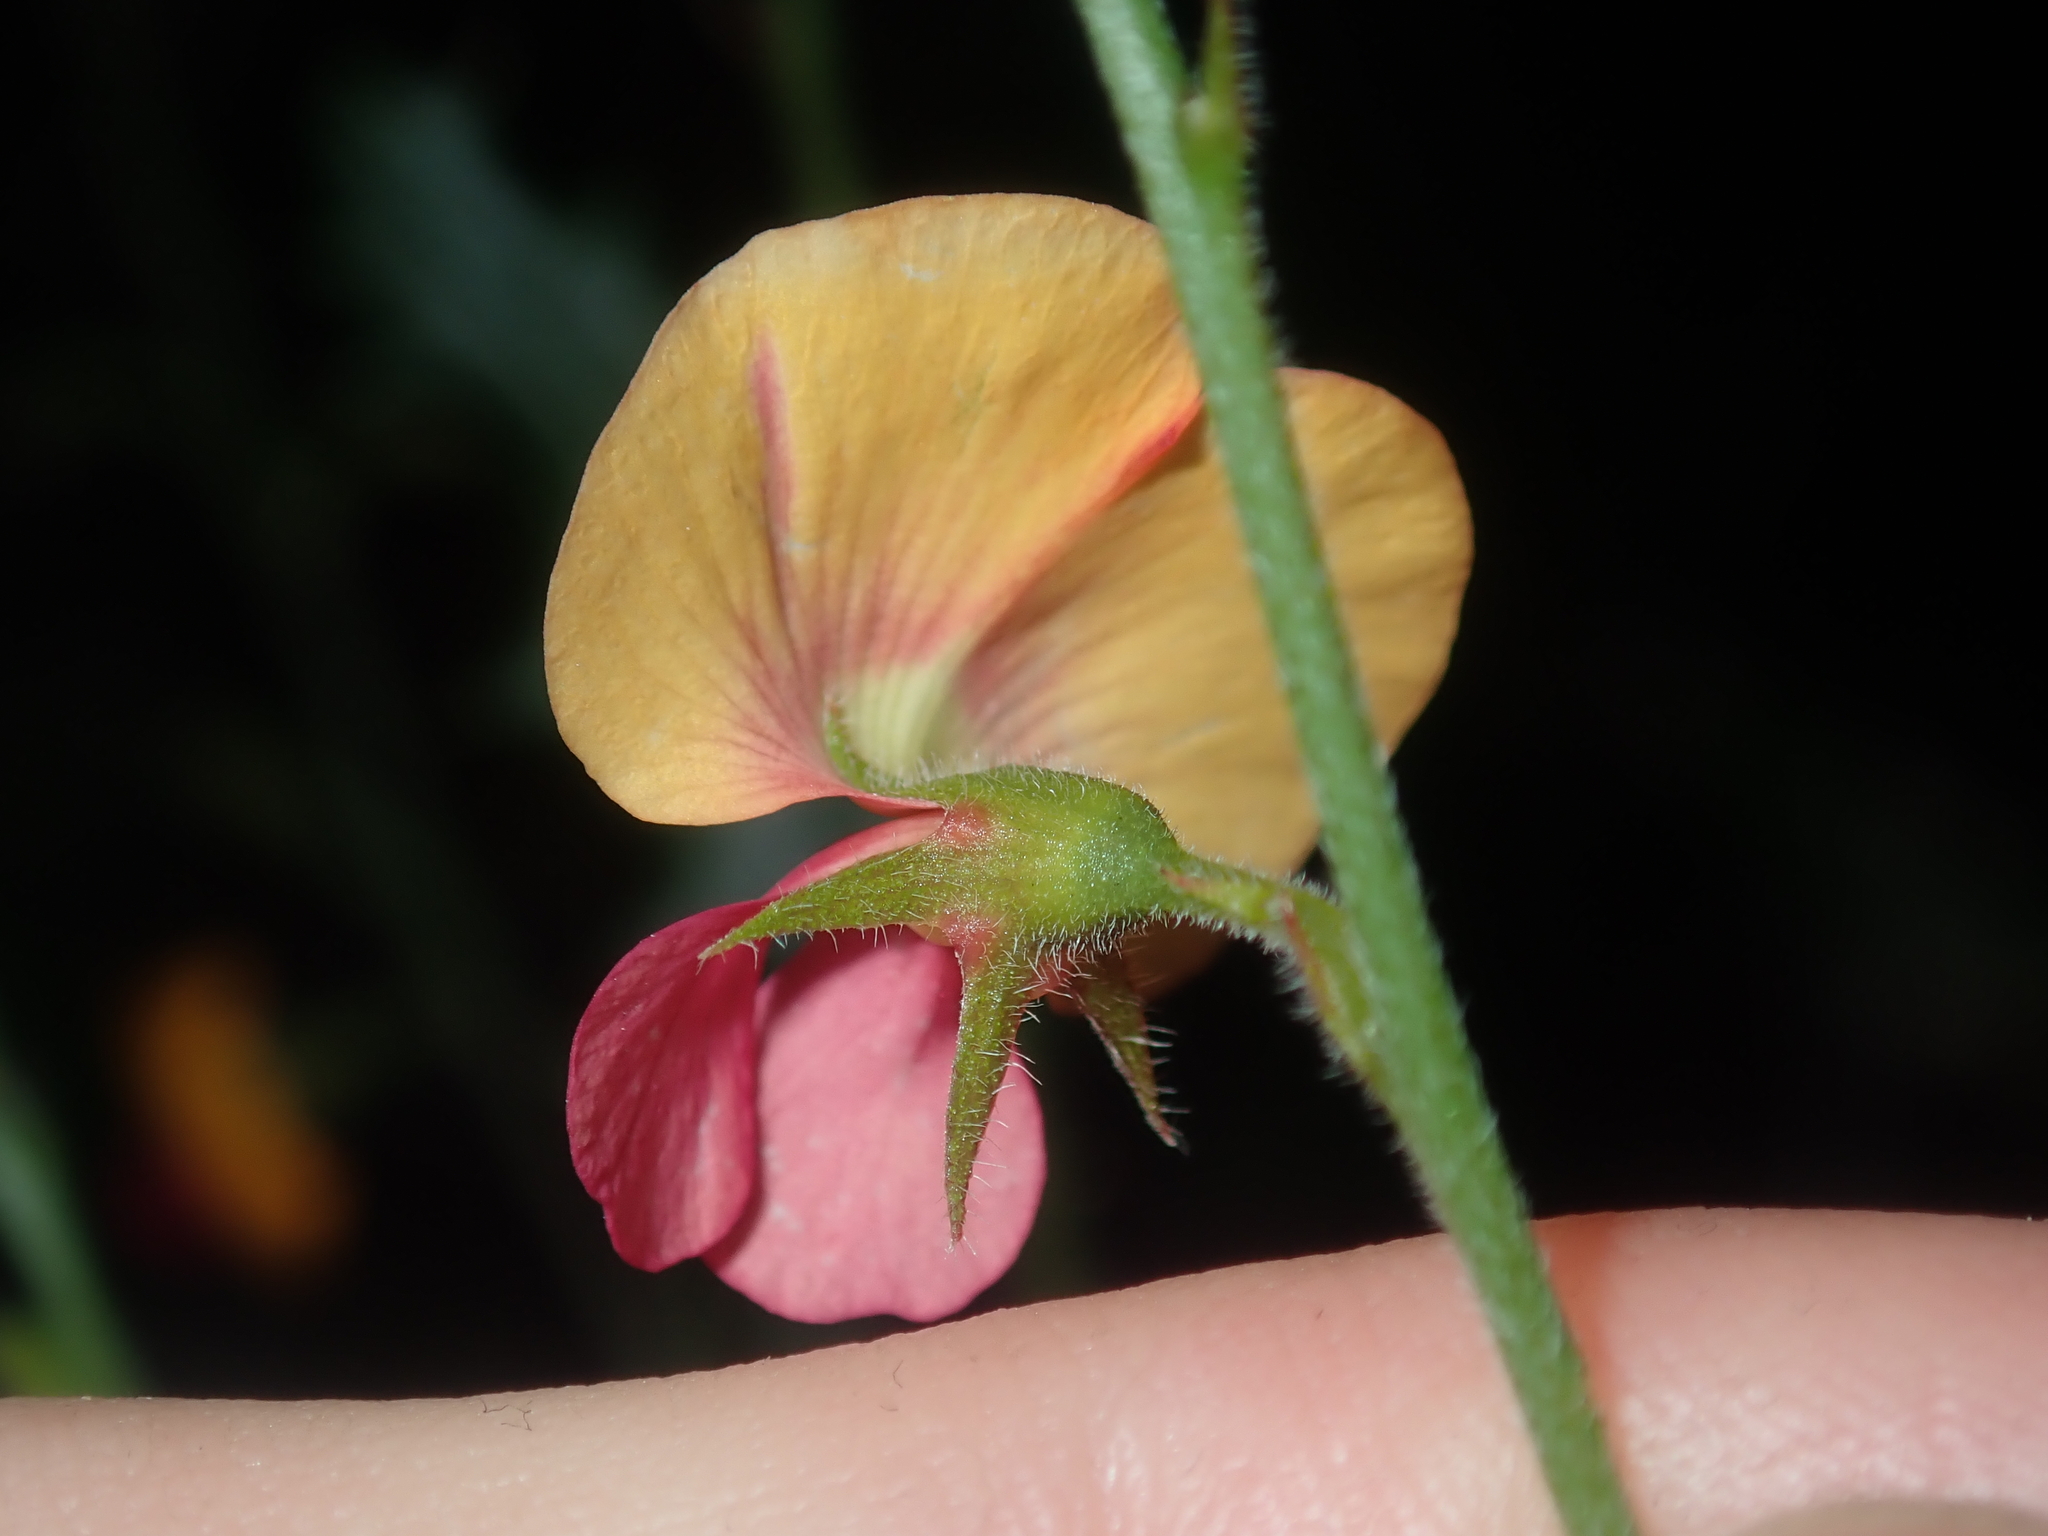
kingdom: Plantae
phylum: Tracheophyta
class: Magnoliopsida
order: Fabales
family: Fabaceae
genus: Chorizema
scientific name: Chorizema cordatum
